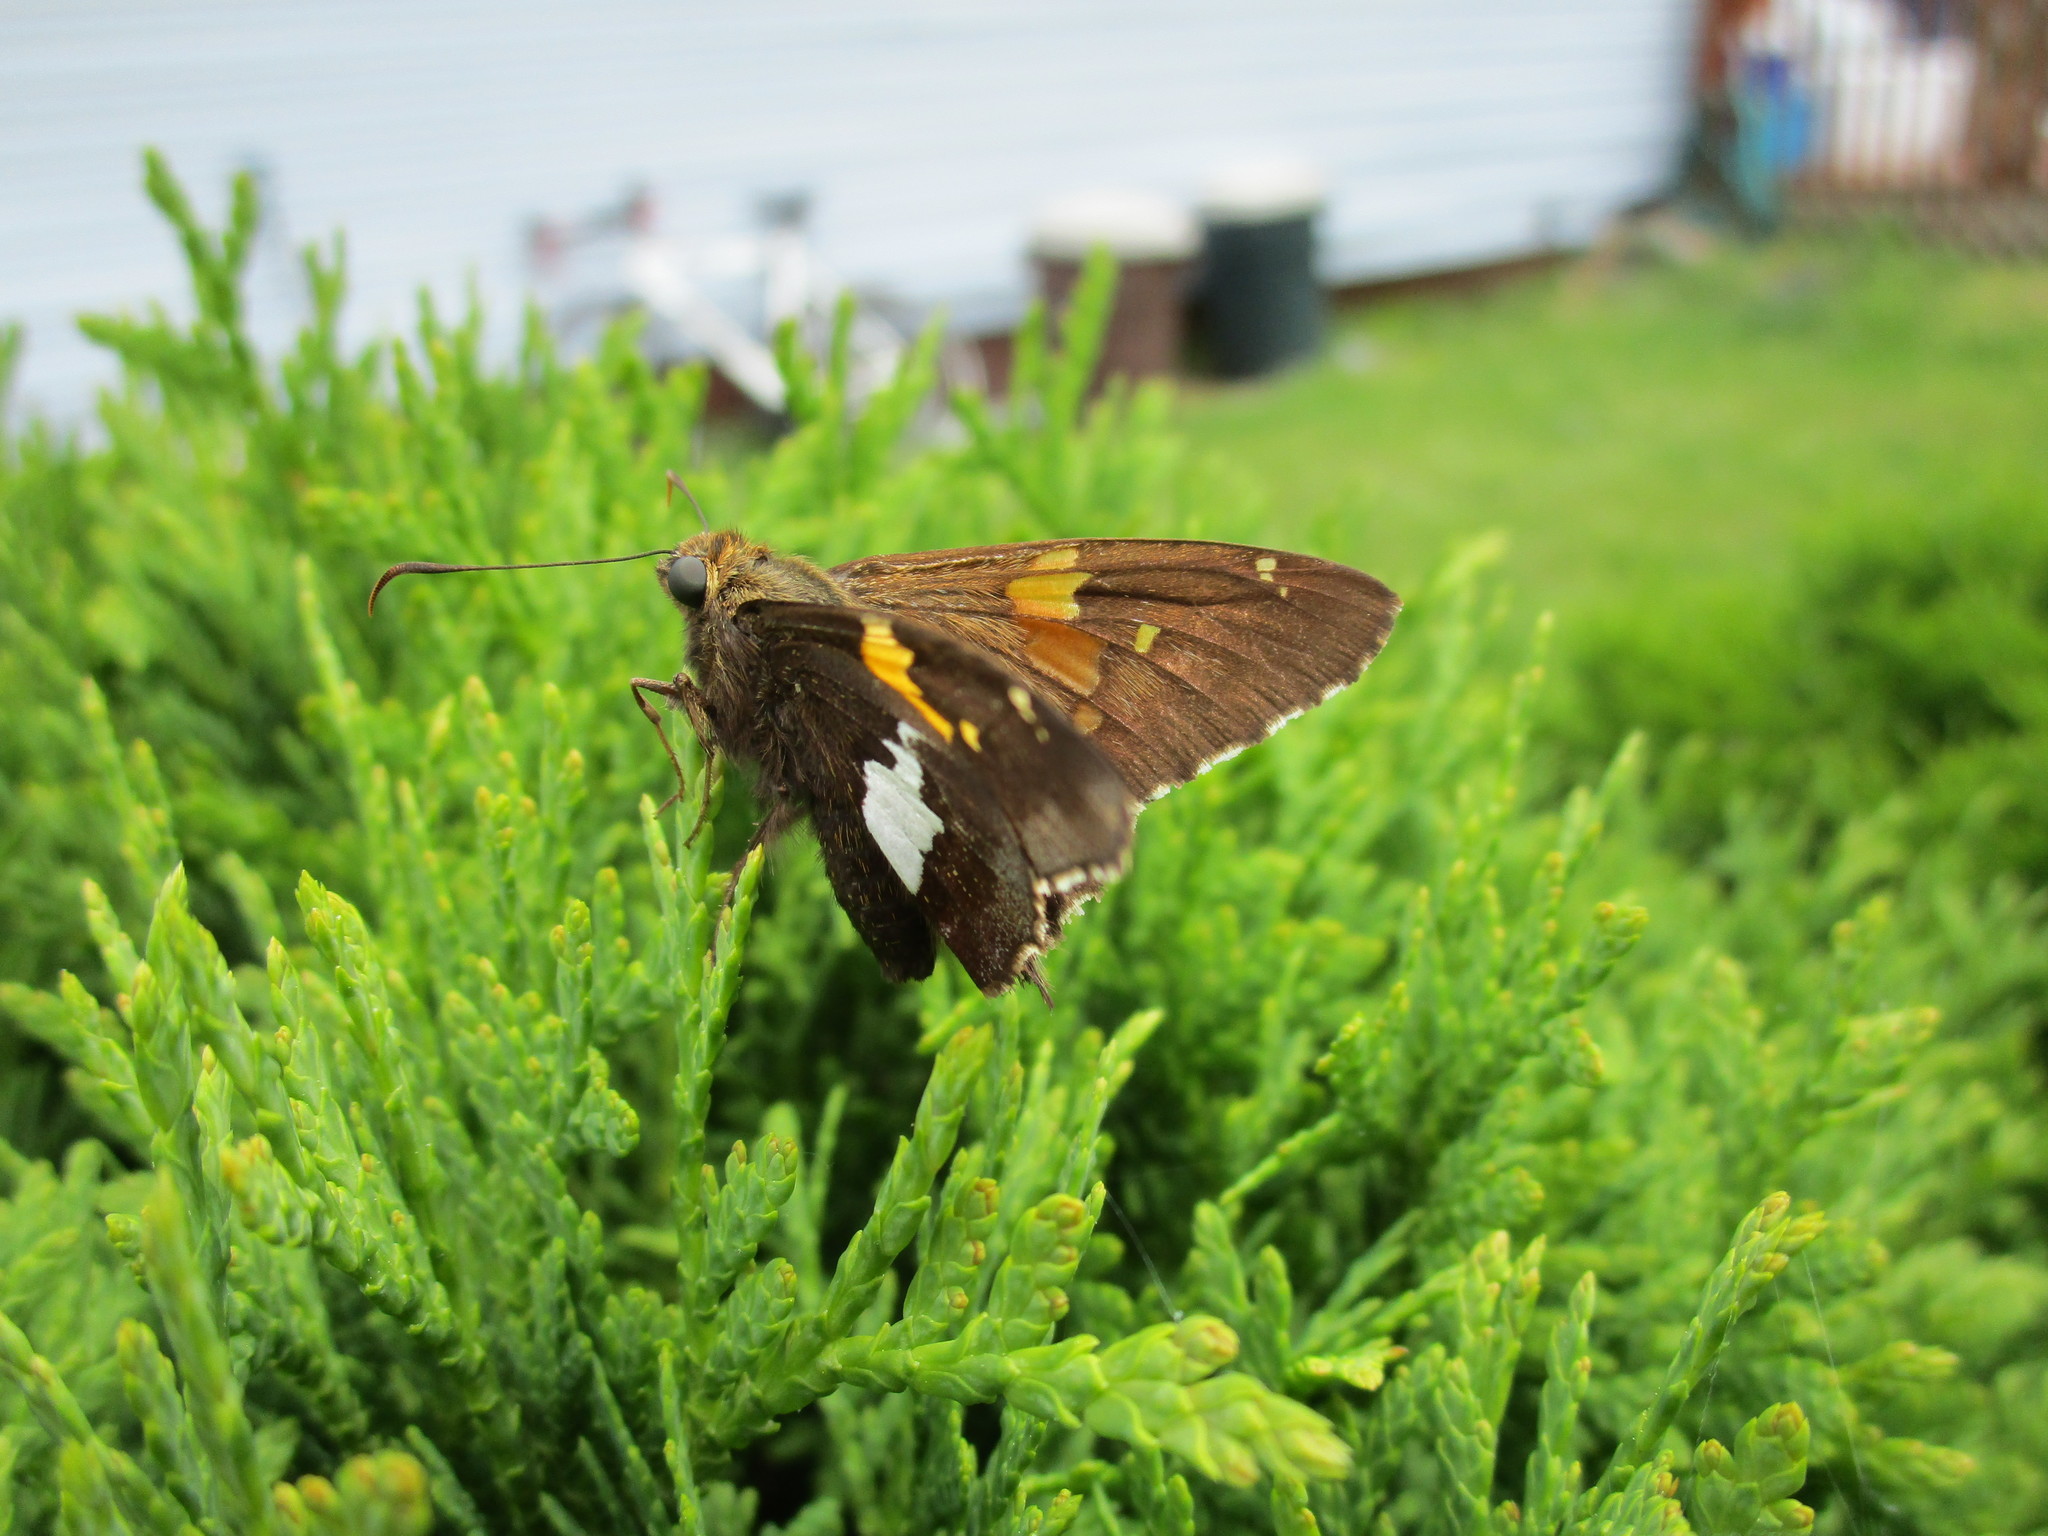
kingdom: Animalia
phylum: Arthropoda
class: Insecta
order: Lepidoptera
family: Hesperiidae
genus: Epargyreus
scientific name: Epargyreus clarus
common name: Silver-spotted skipper
